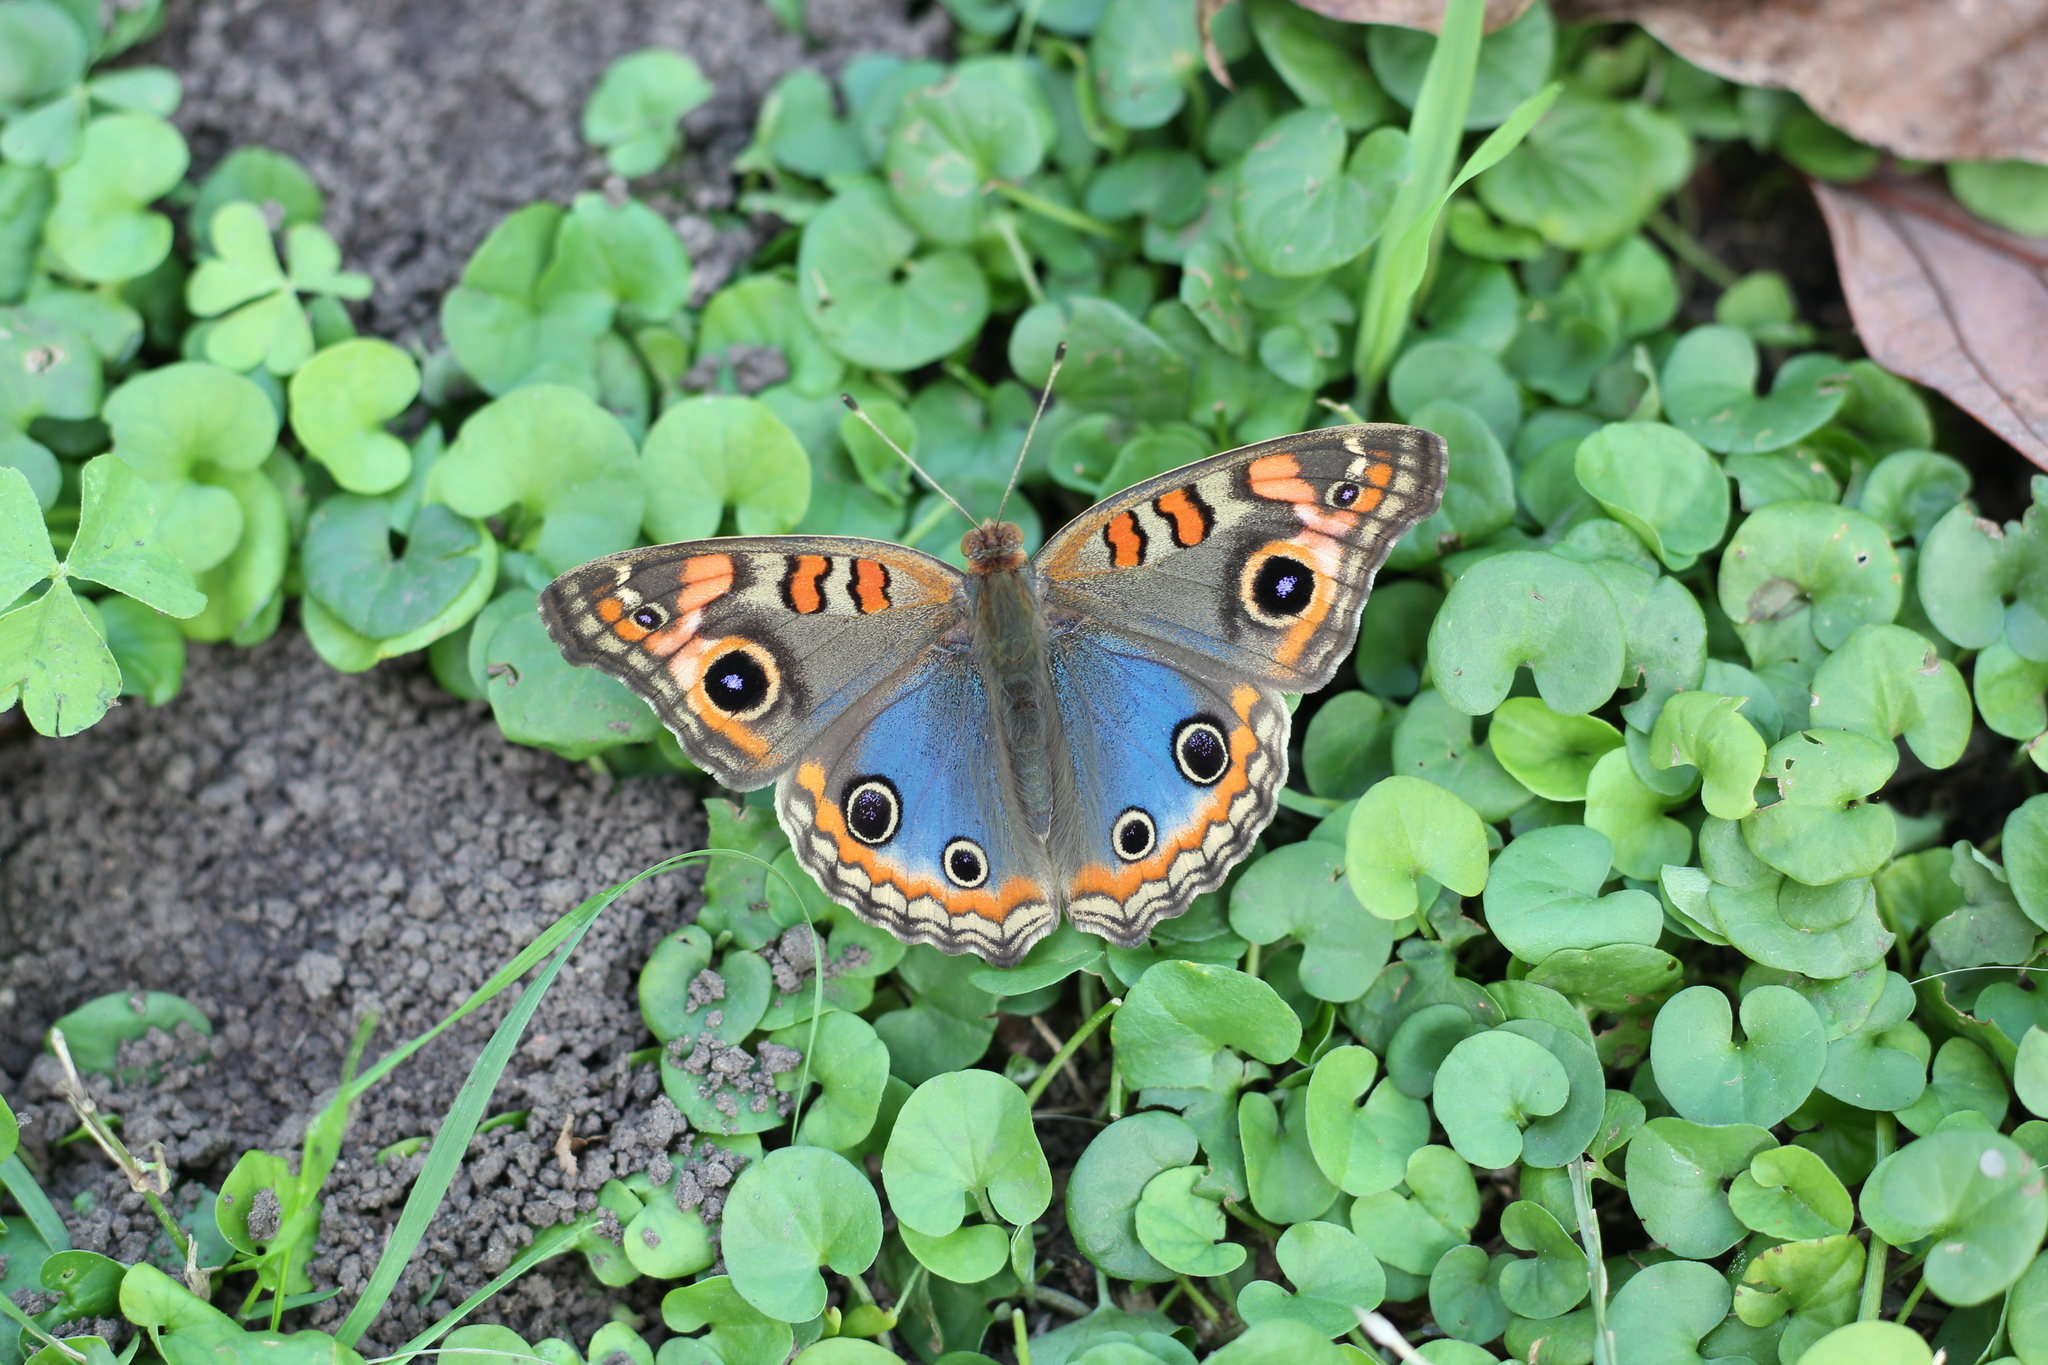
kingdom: Animalia
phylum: Arthropoda
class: Insecta
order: Lepidoptera
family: Nymphalidae
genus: Junonia
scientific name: Junonia lavinia
